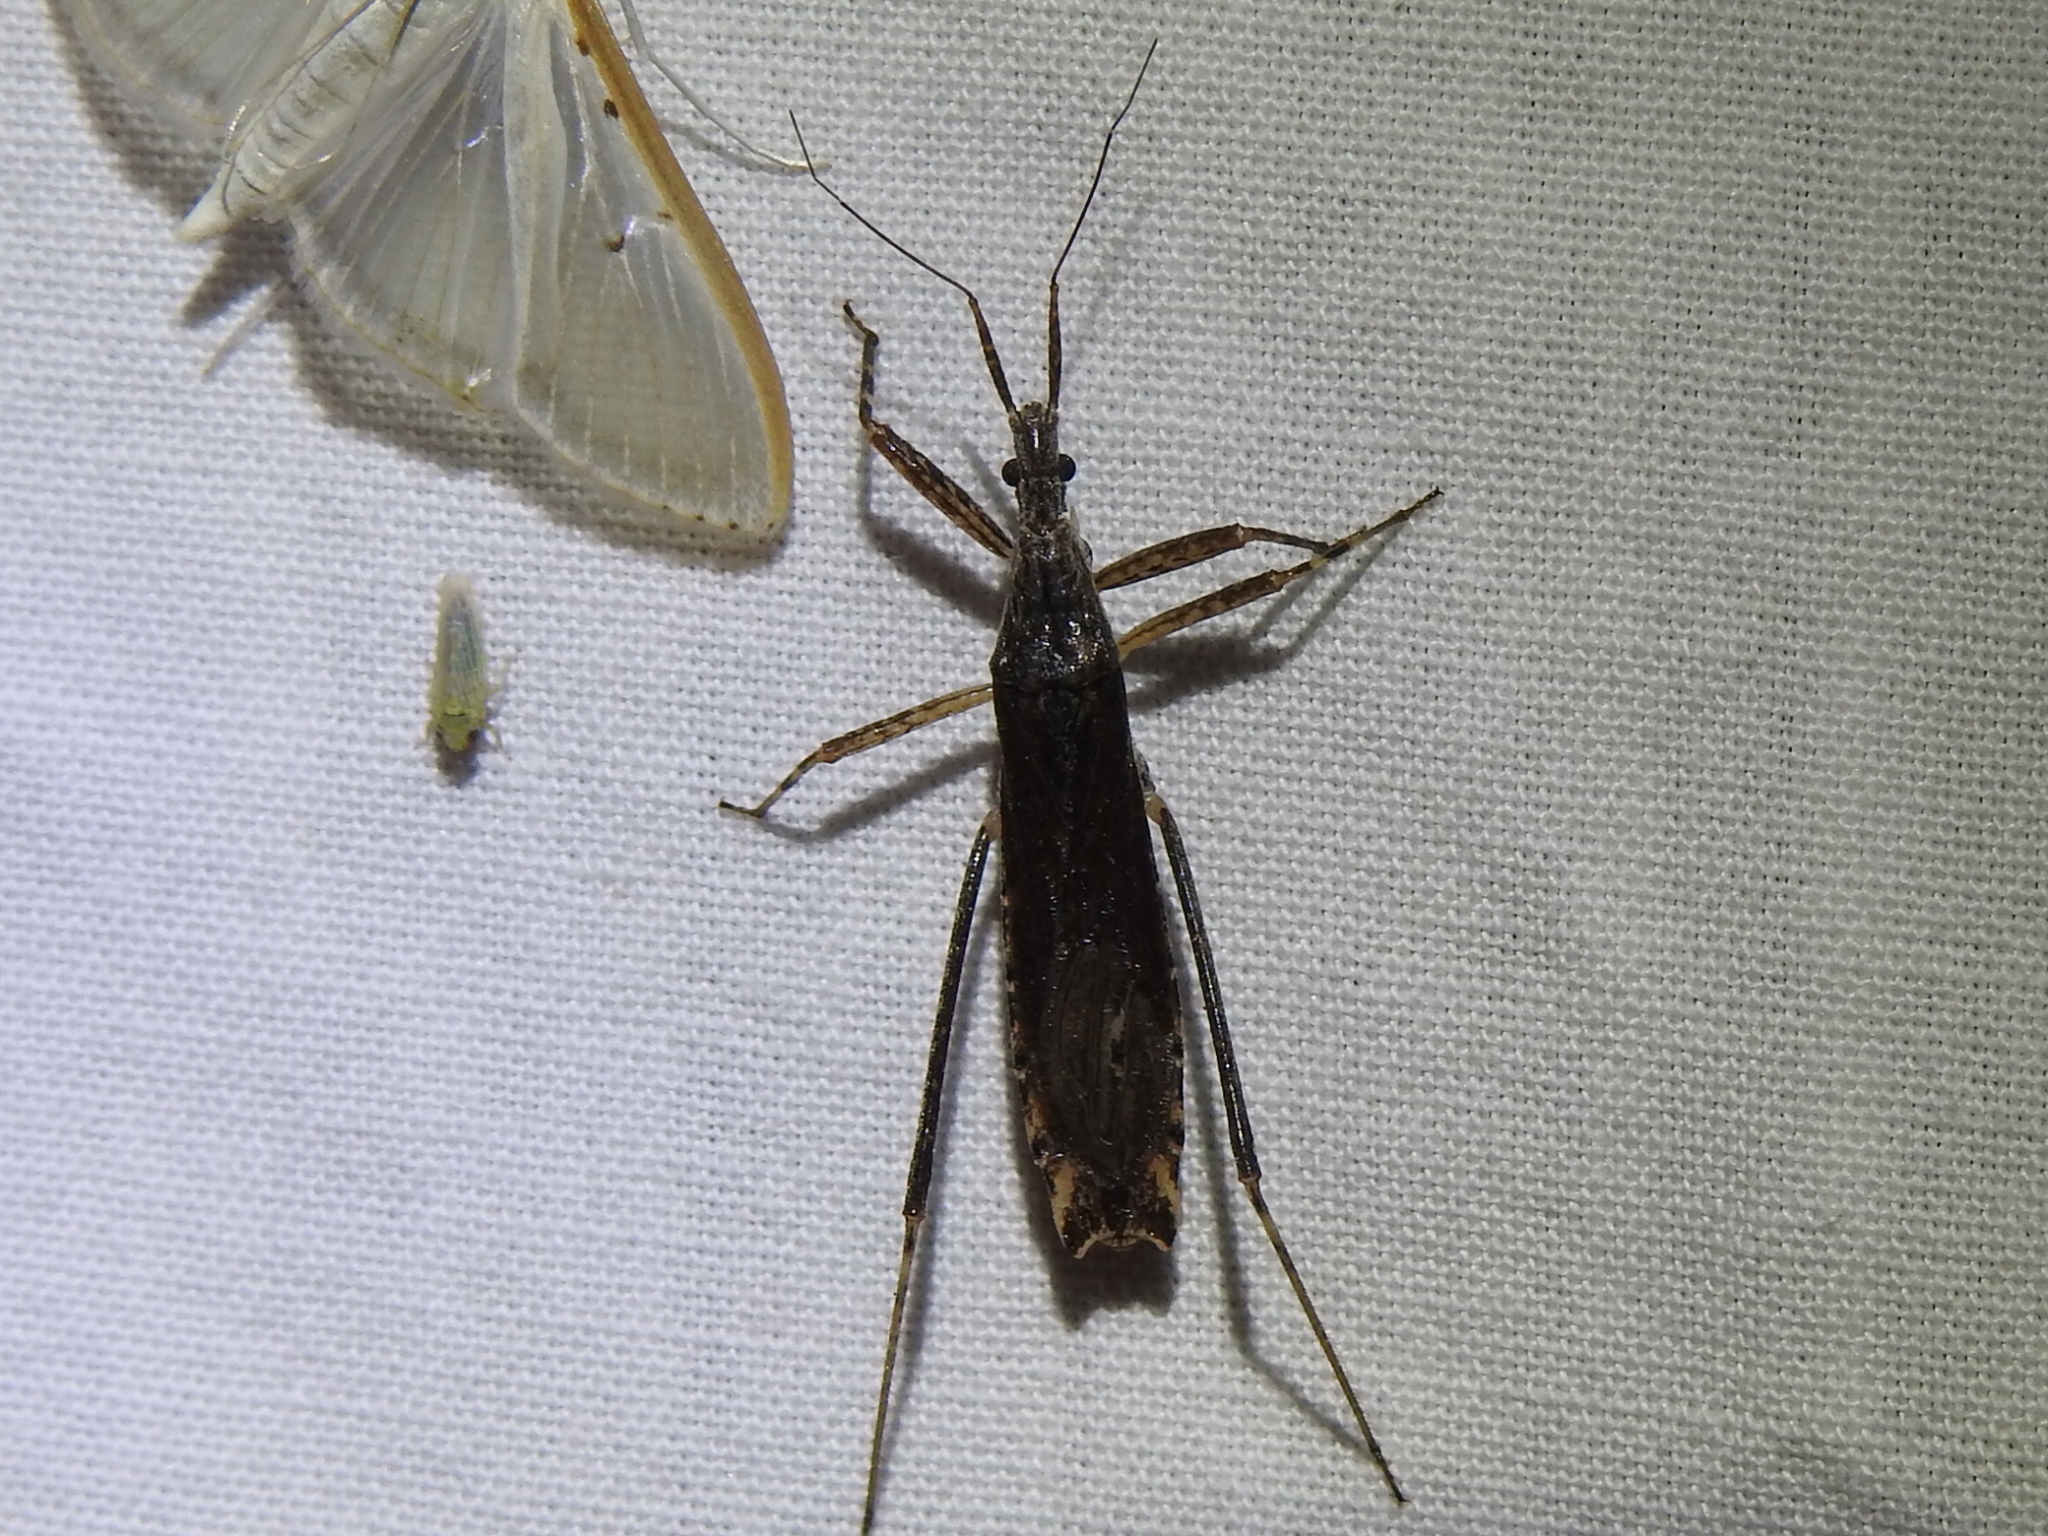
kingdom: Animalia
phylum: Arthropoda
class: Insecta
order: Hemiptera
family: Reduviidae
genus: Pygolampis
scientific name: Pygolampis pectoralis
